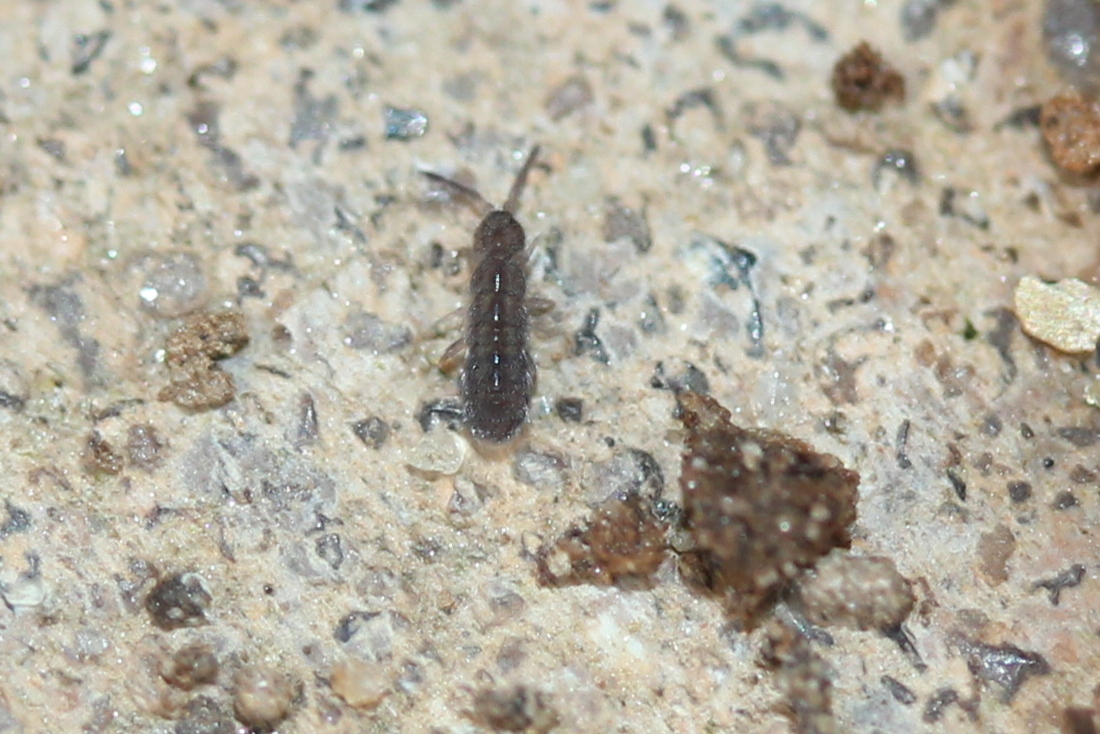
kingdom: Animalia
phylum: Arthropoda
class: Collembola
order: Entomobryomorpha
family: Isotomidae
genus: Isotoma
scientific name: Isotoma delta
